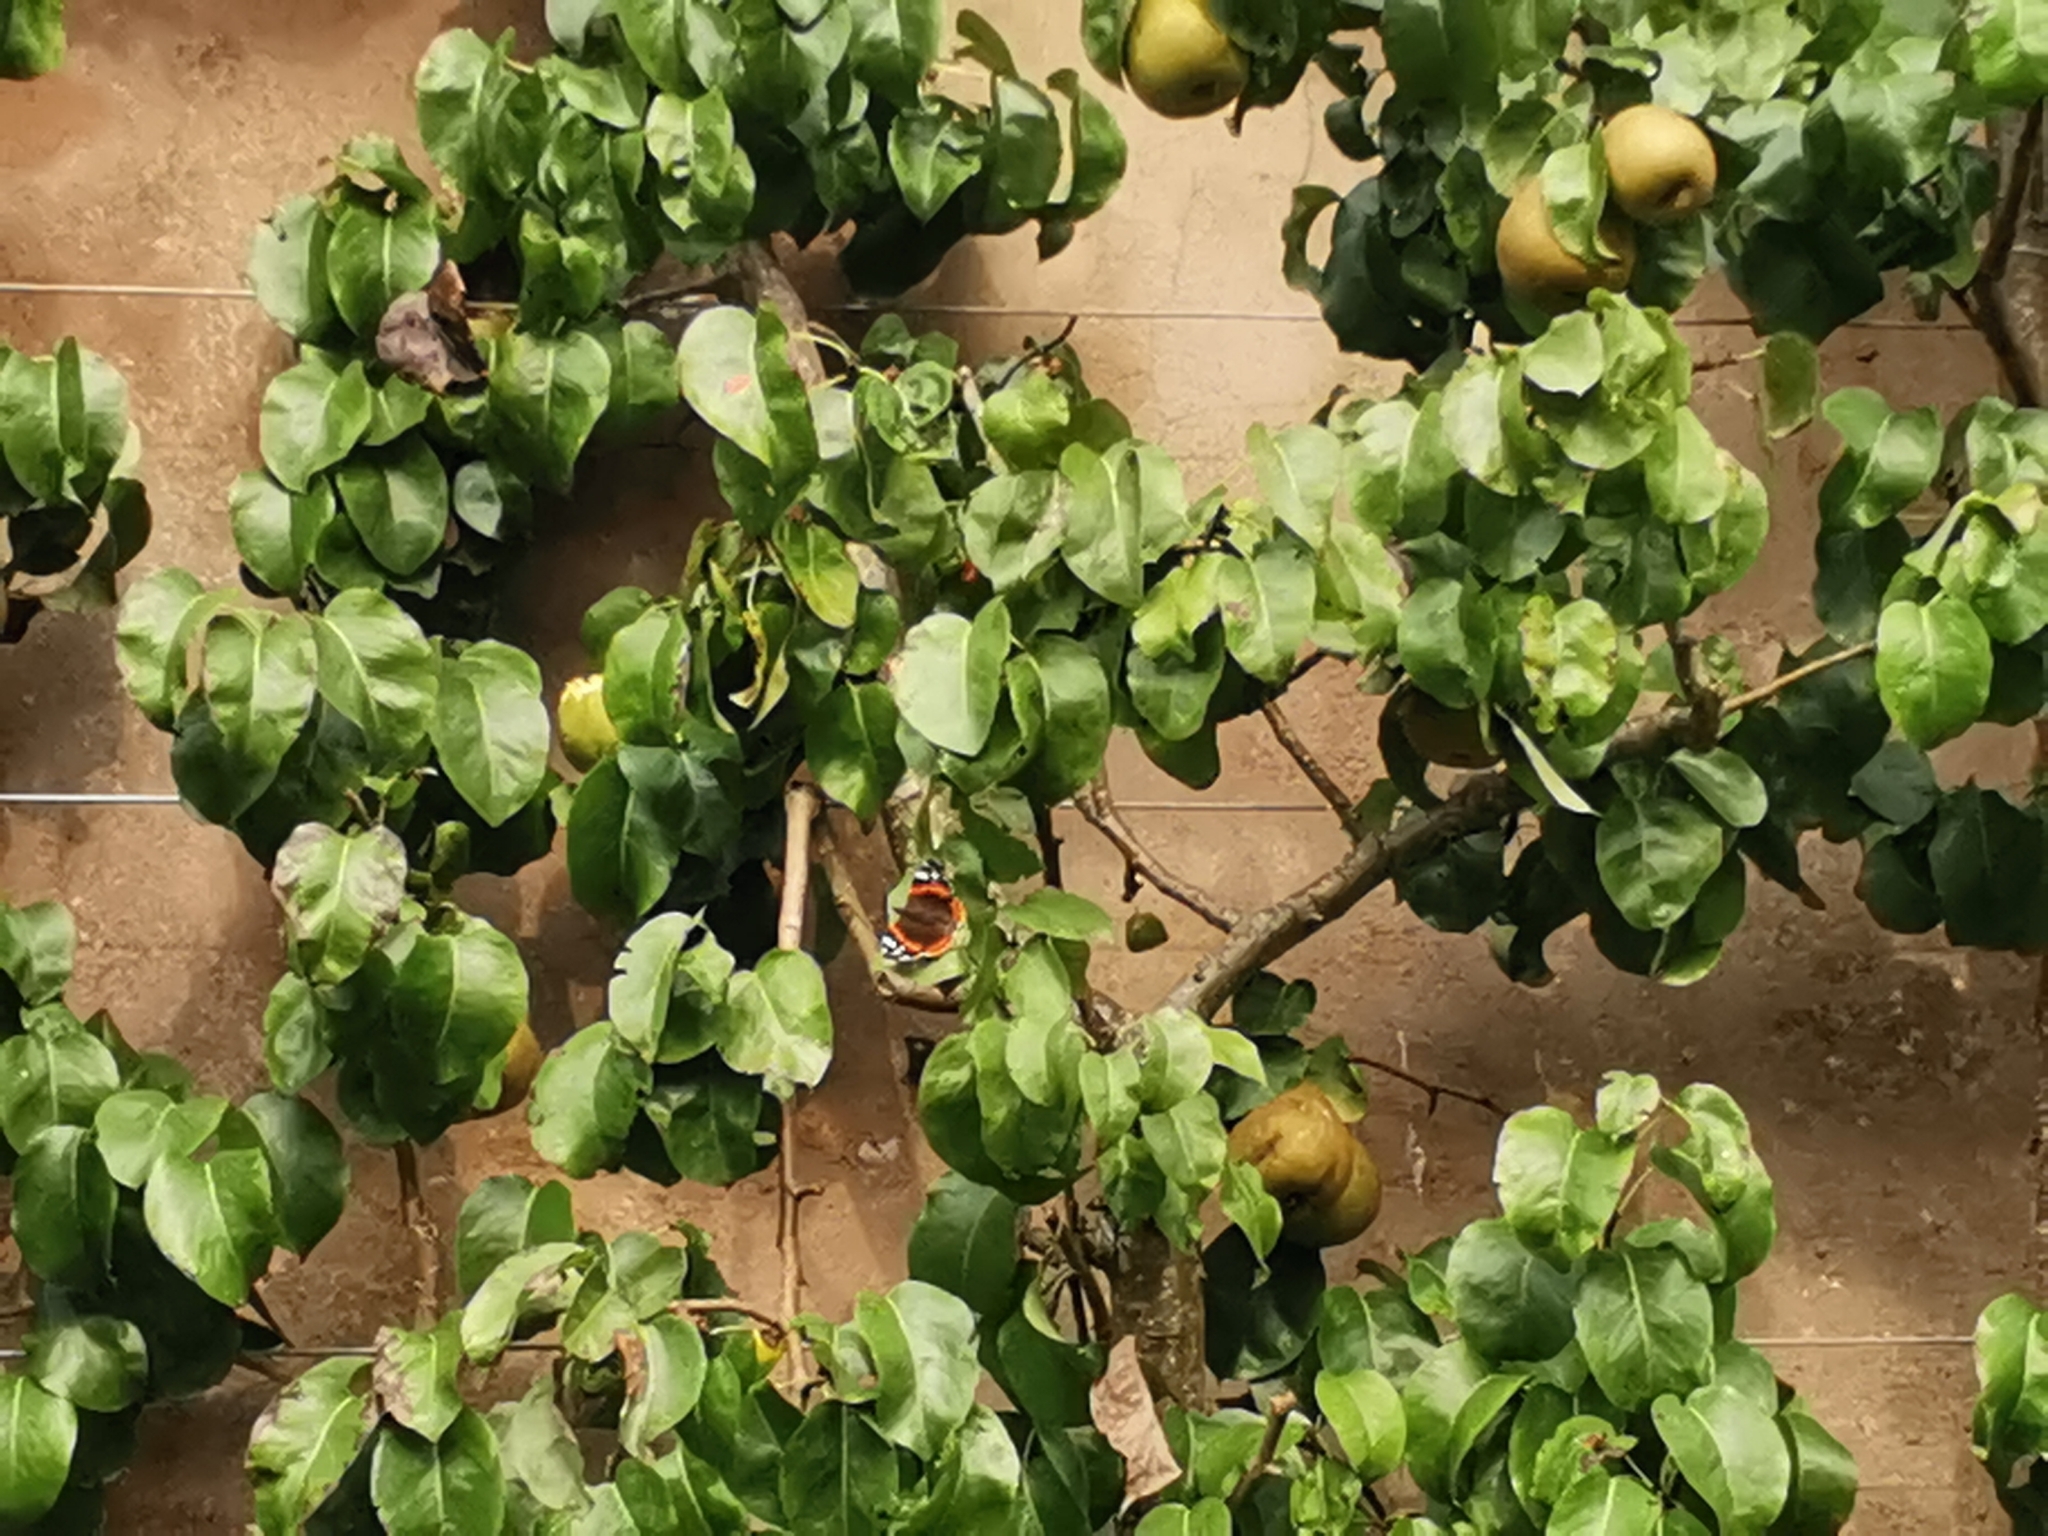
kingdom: Animalia
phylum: Arthropoda
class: Insecta
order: Lepidoptera
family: Nymphalidae
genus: Vanessa
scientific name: Vanessa atalanta
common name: Red admiral
